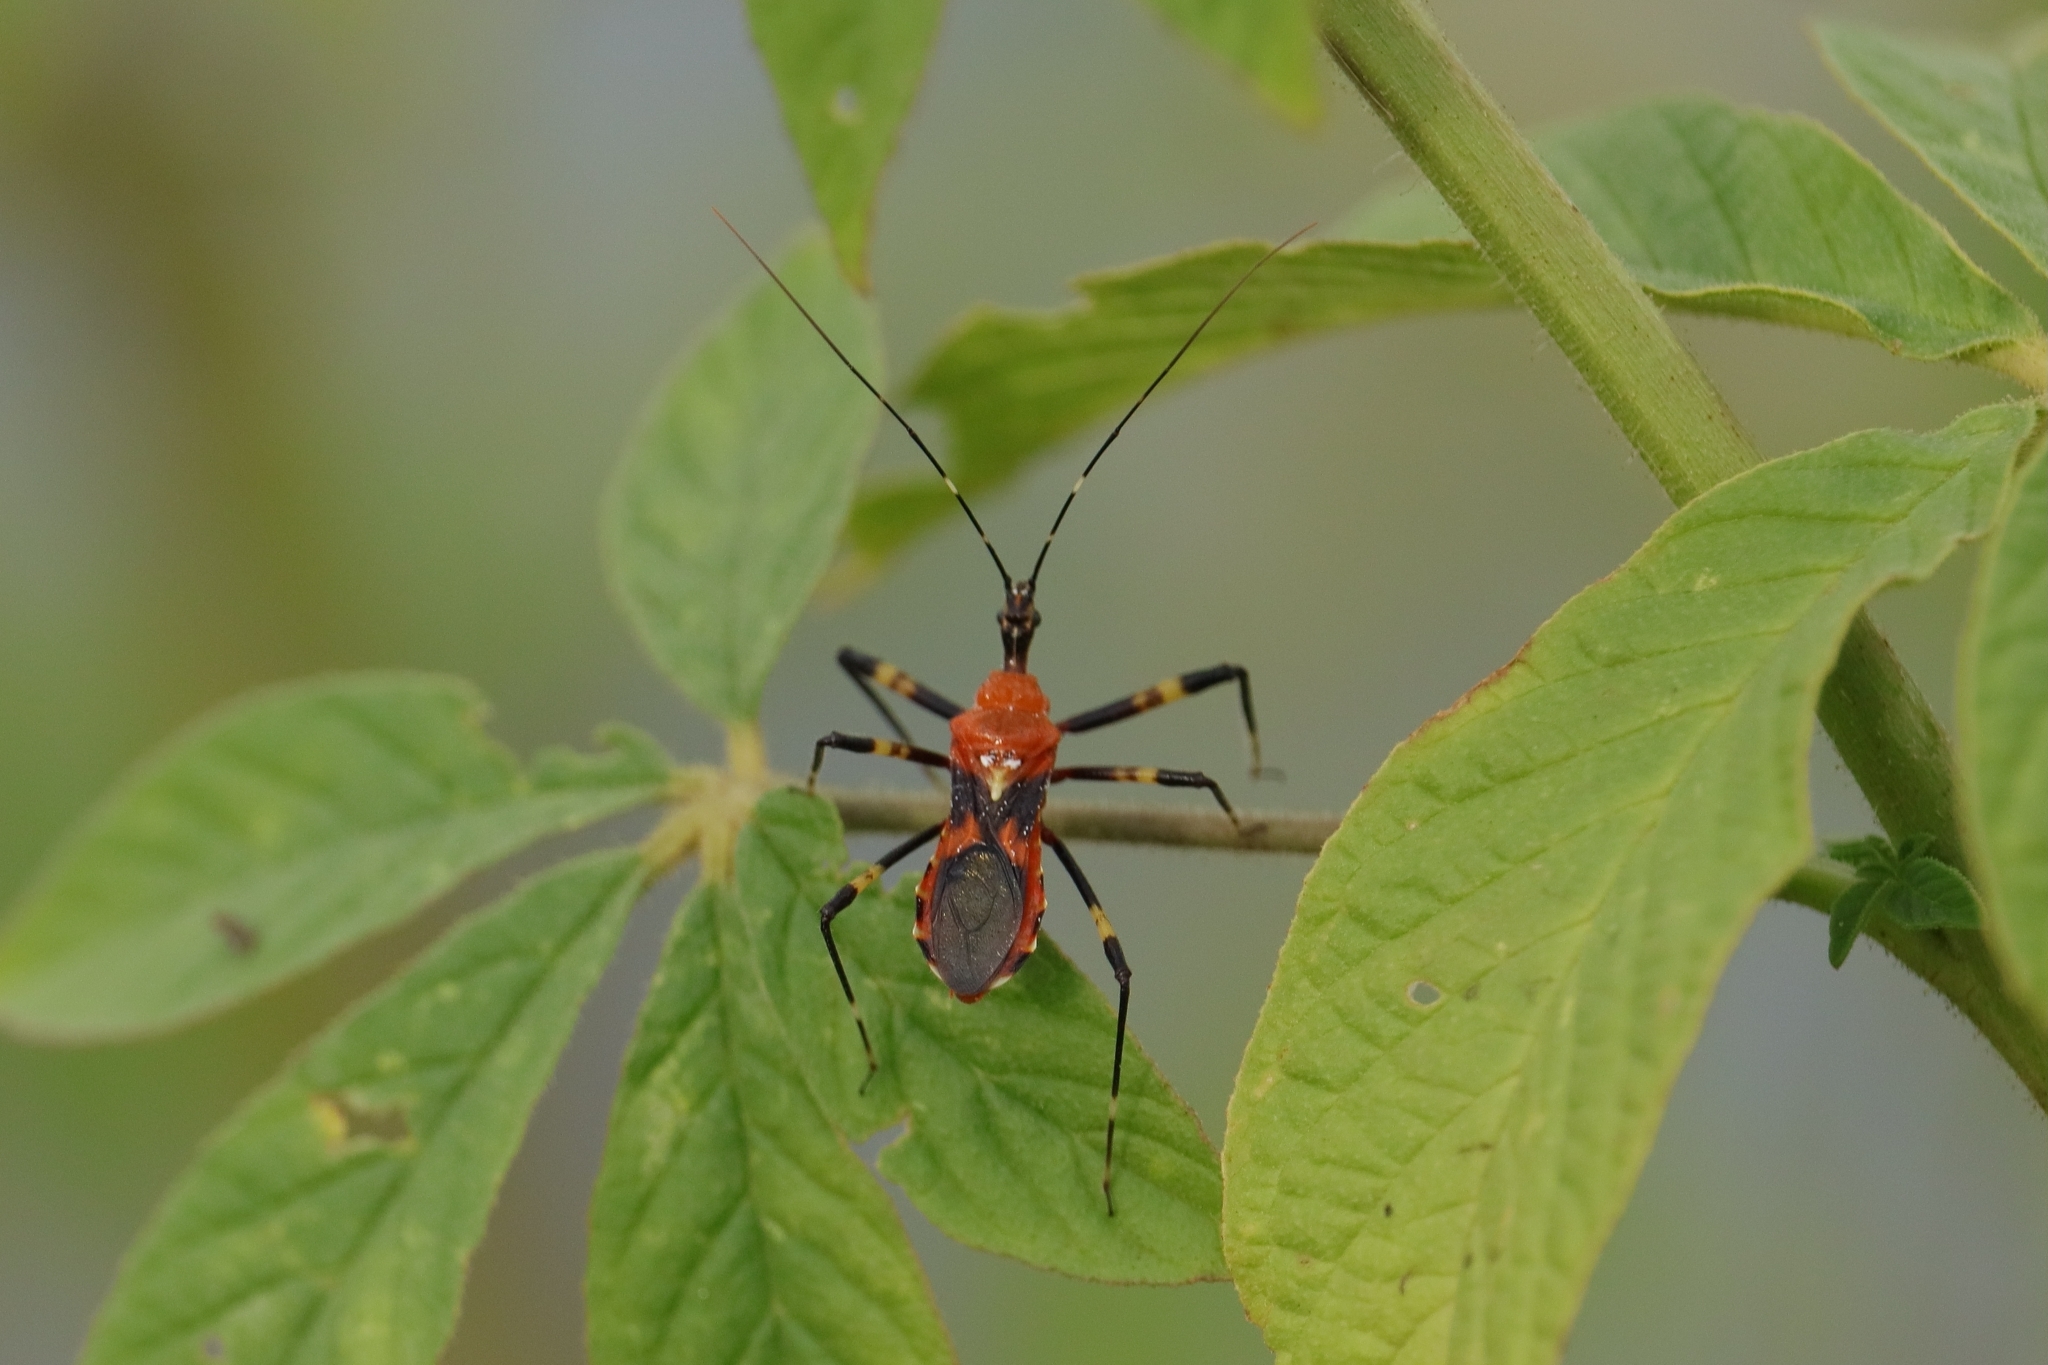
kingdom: Animalia
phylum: Arthropoda
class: Insecta
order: Hemiptera
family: Reduviidae
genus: Pyrrhosphodrus
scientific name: Pyrrhosphodrus caatingensis
